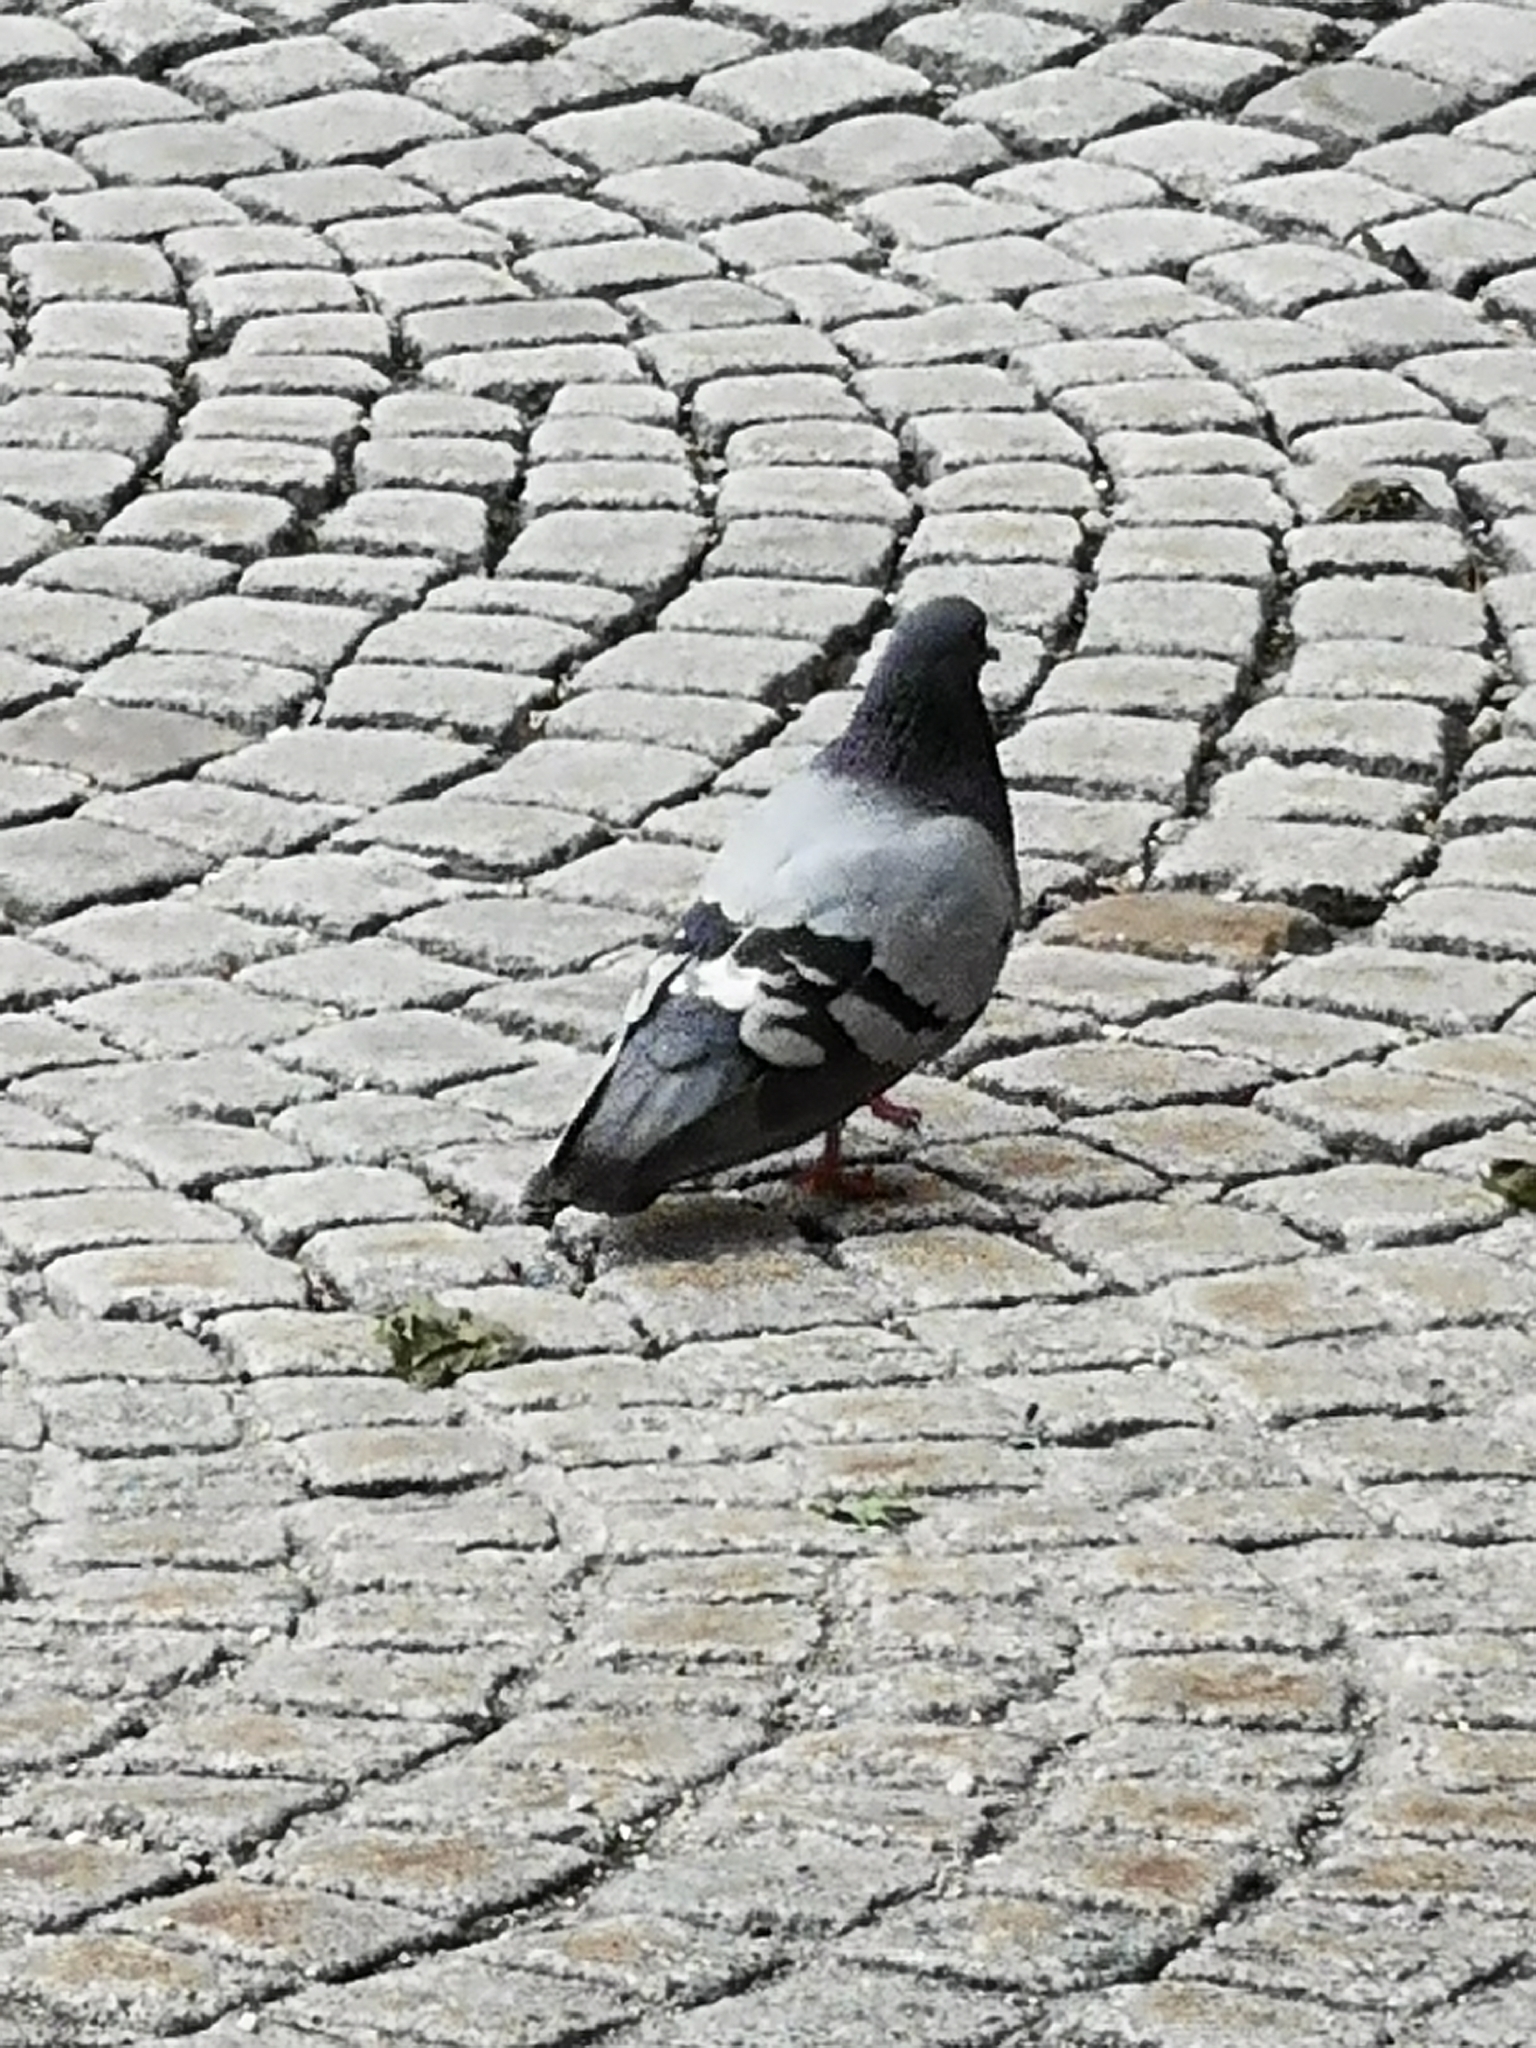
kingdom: Animalia
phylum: Chordata
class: Aves
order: Columbiformes
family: Columbidae
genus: Columba
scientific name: Columba livia
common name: Rock pigeon
